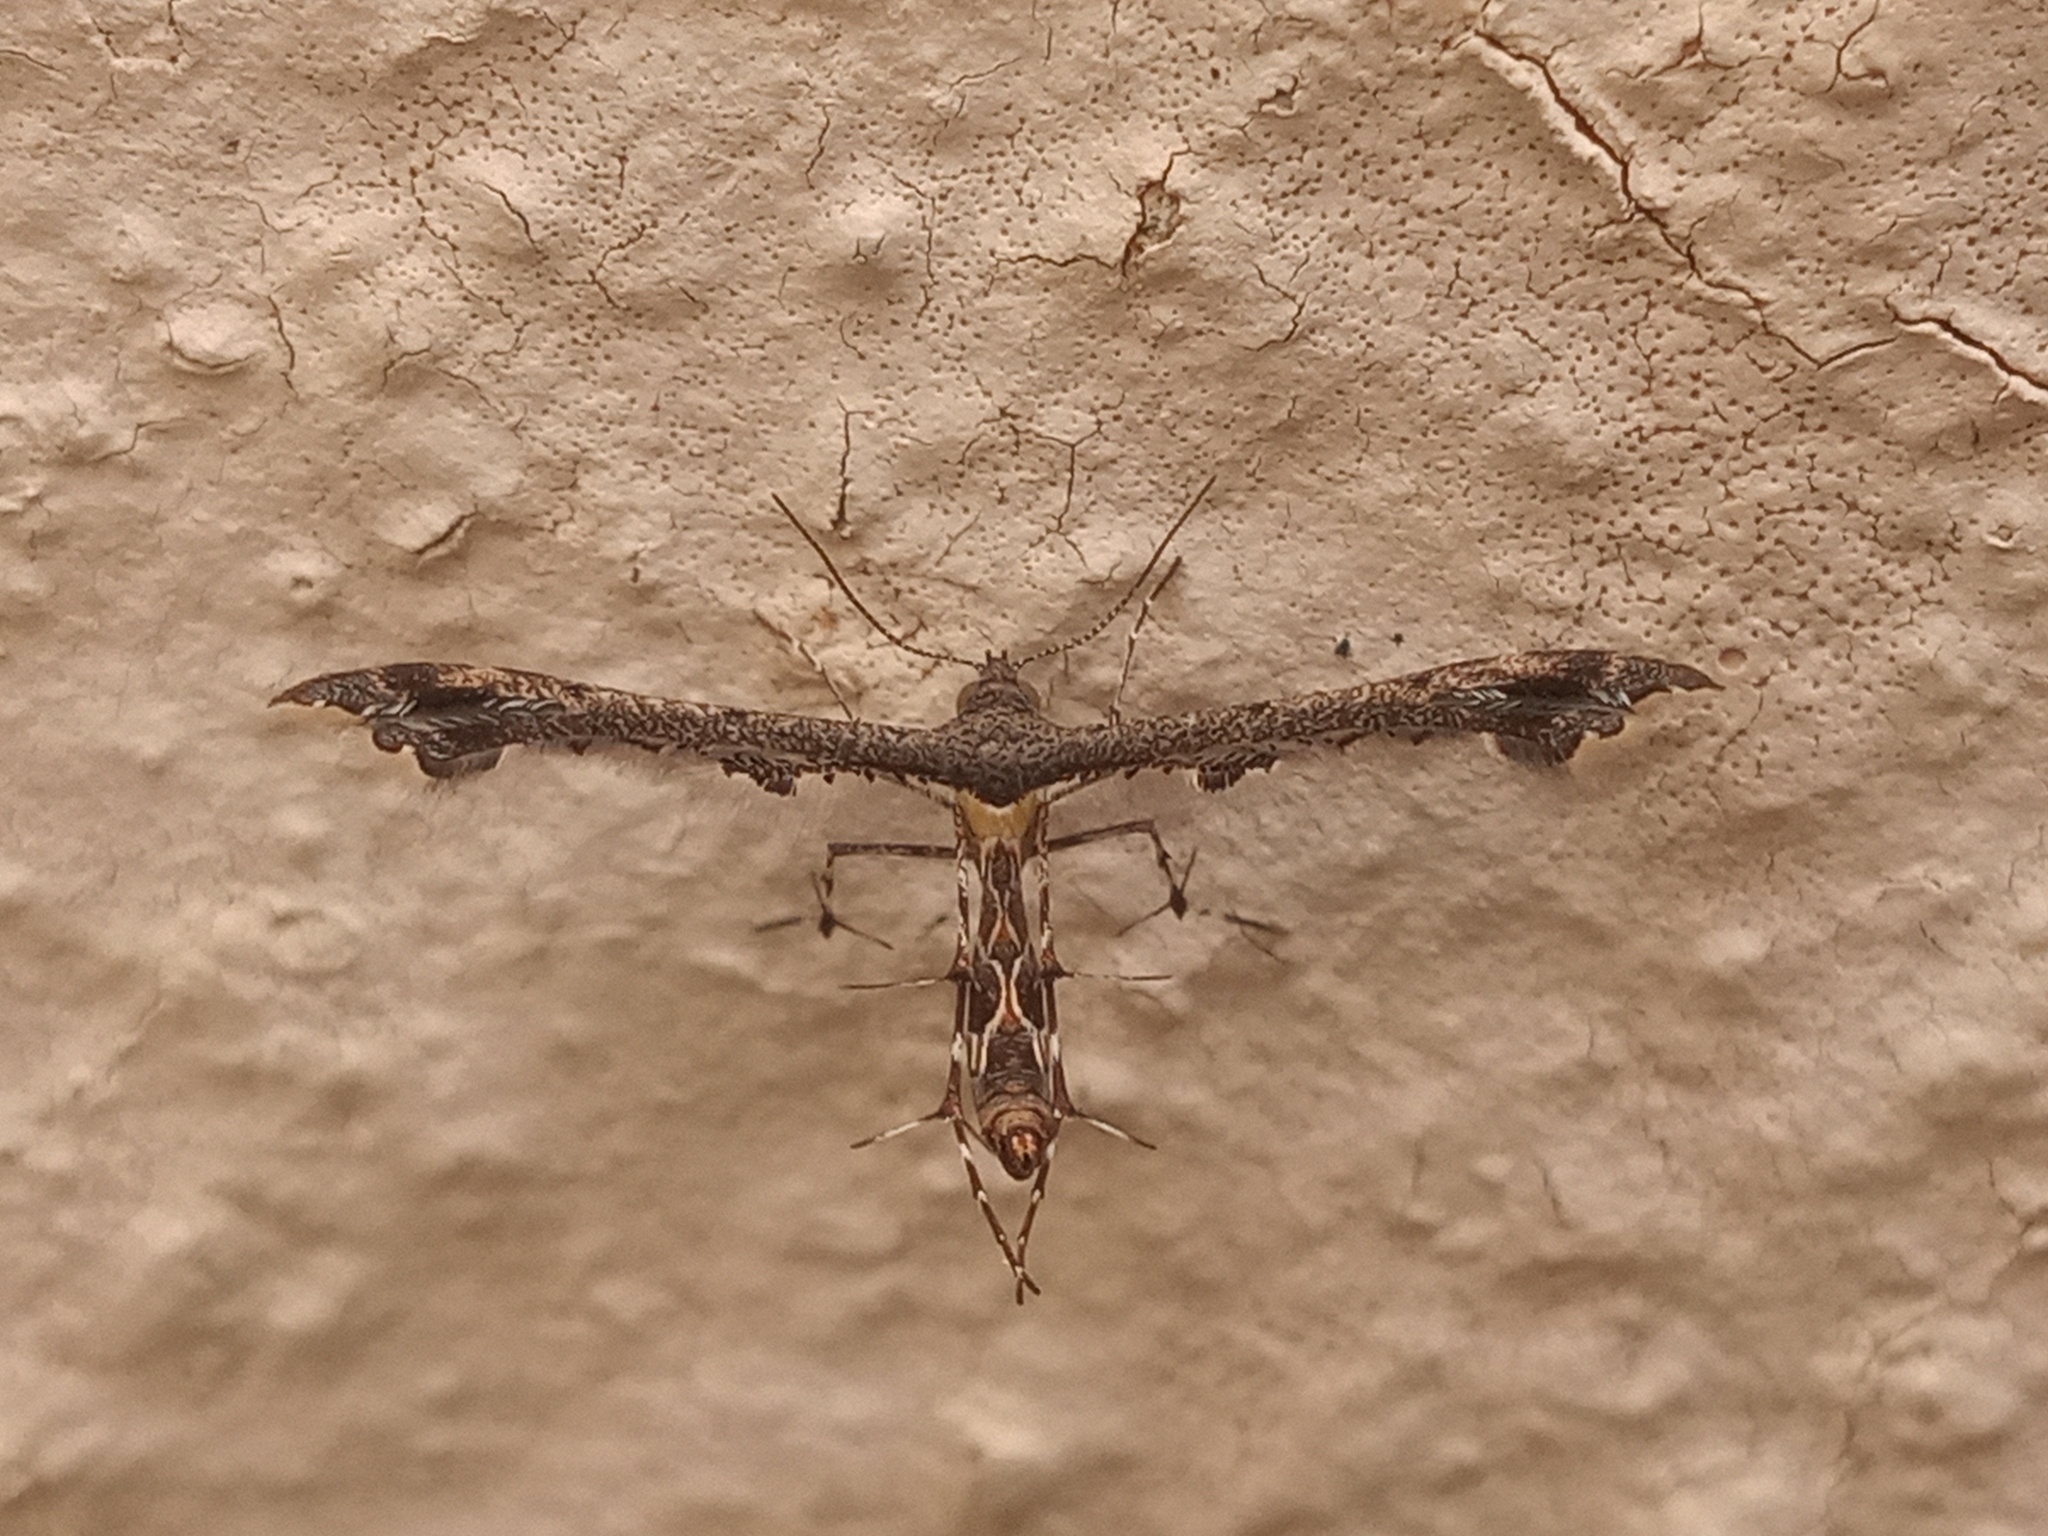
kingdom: Animalia
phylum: Arthropoda
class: Insecta
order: Lepidoptera
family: Pterophoridae
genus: Michaelophorus
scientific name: Michaelophorus indentatus
